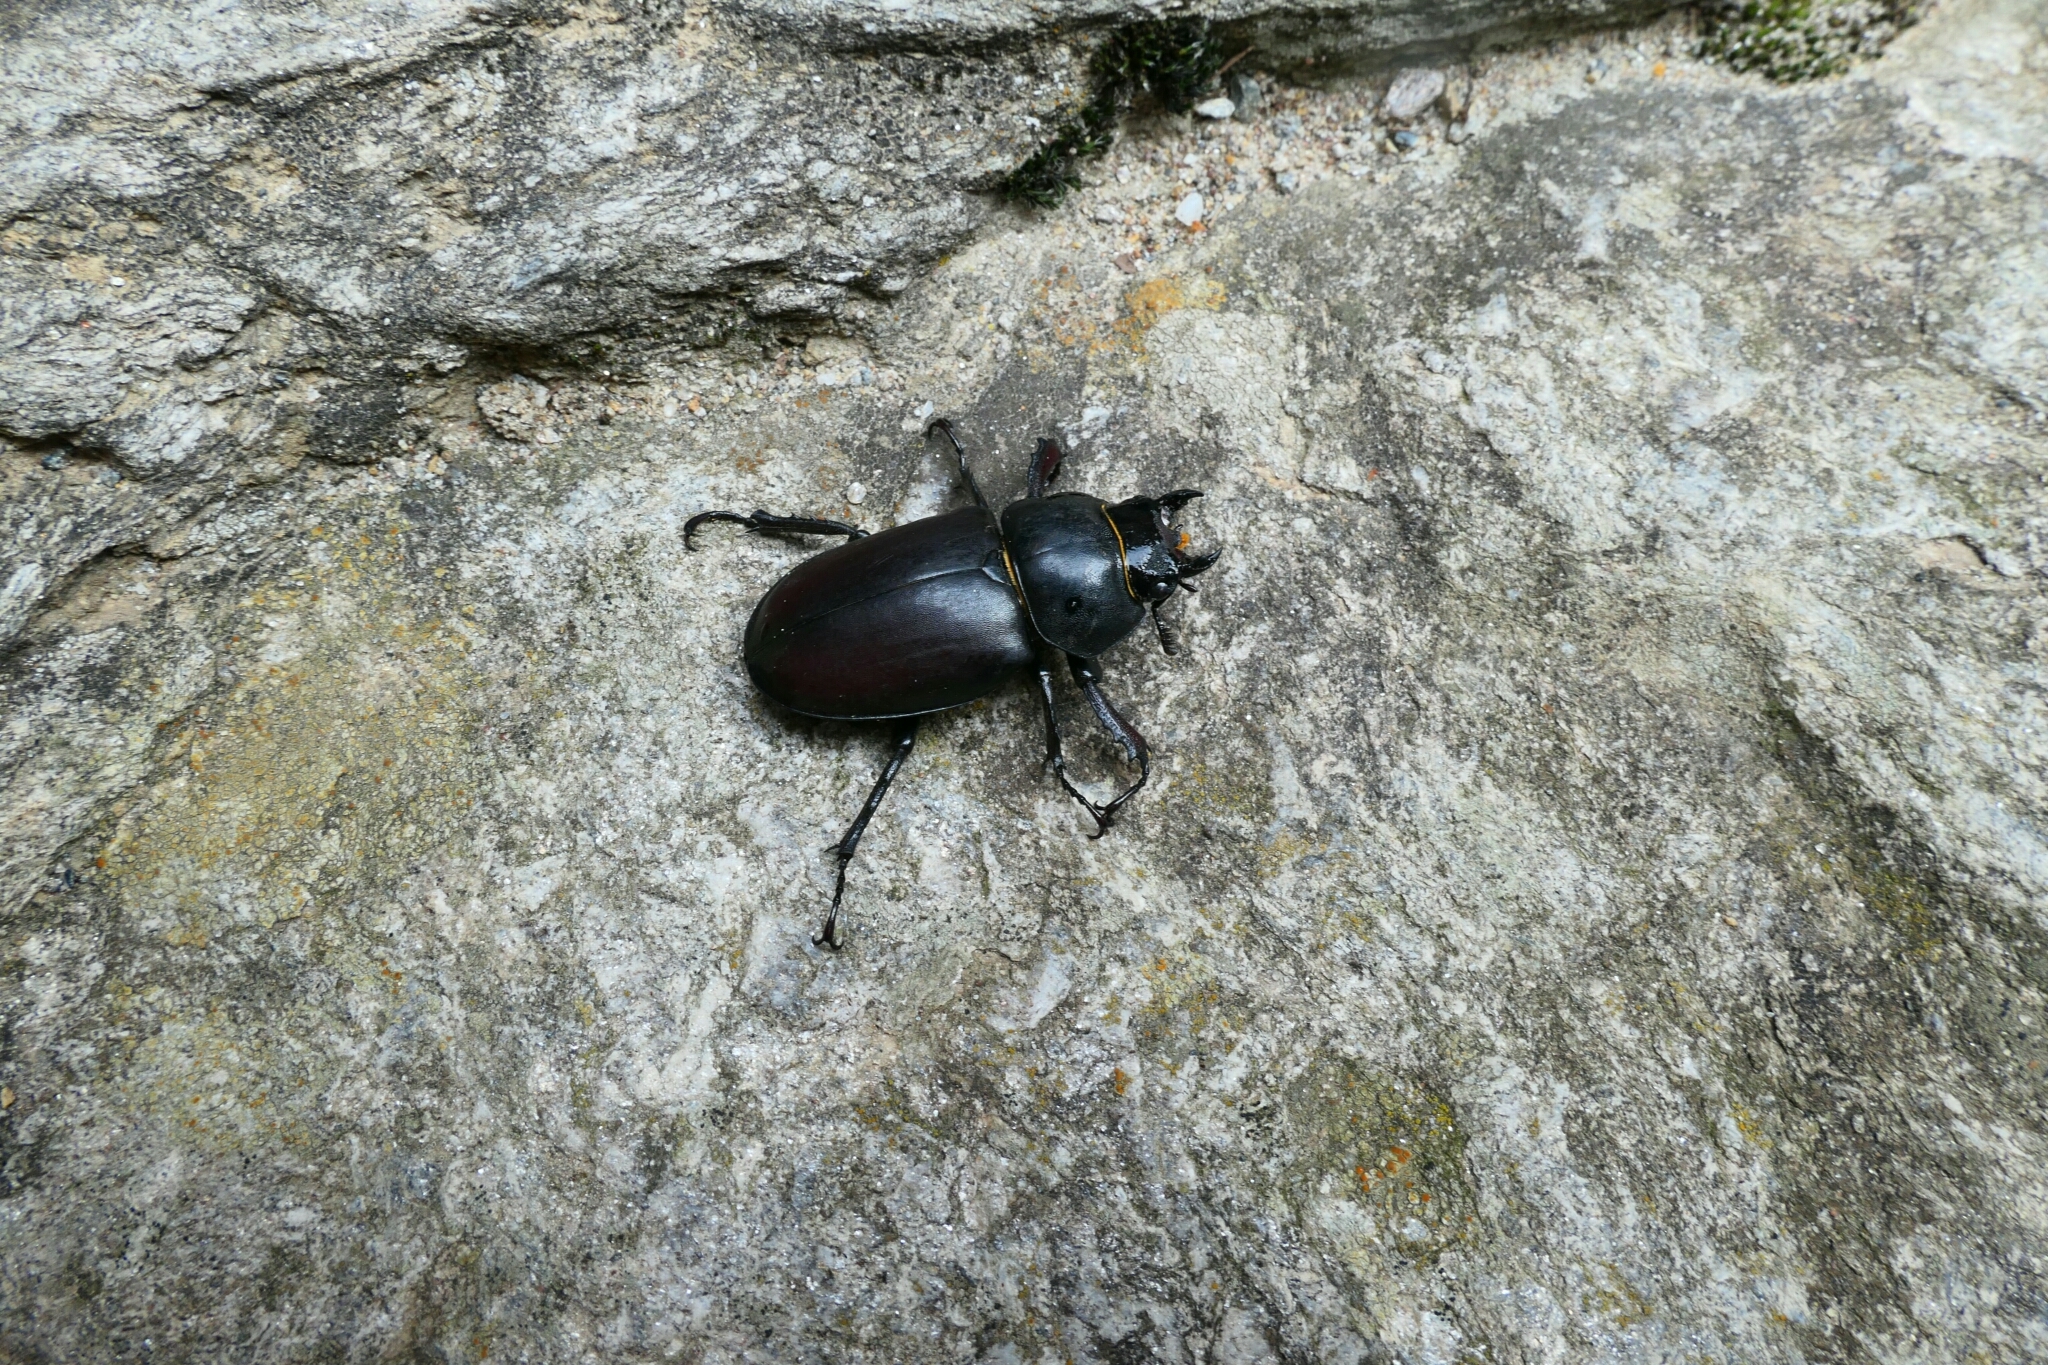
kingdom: Animalia
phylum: Arthropoda
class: Insecta
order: Coleoptera
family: Lucanidae
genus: Lucanus
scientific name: Lucanus cervus
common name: Stag beetle
